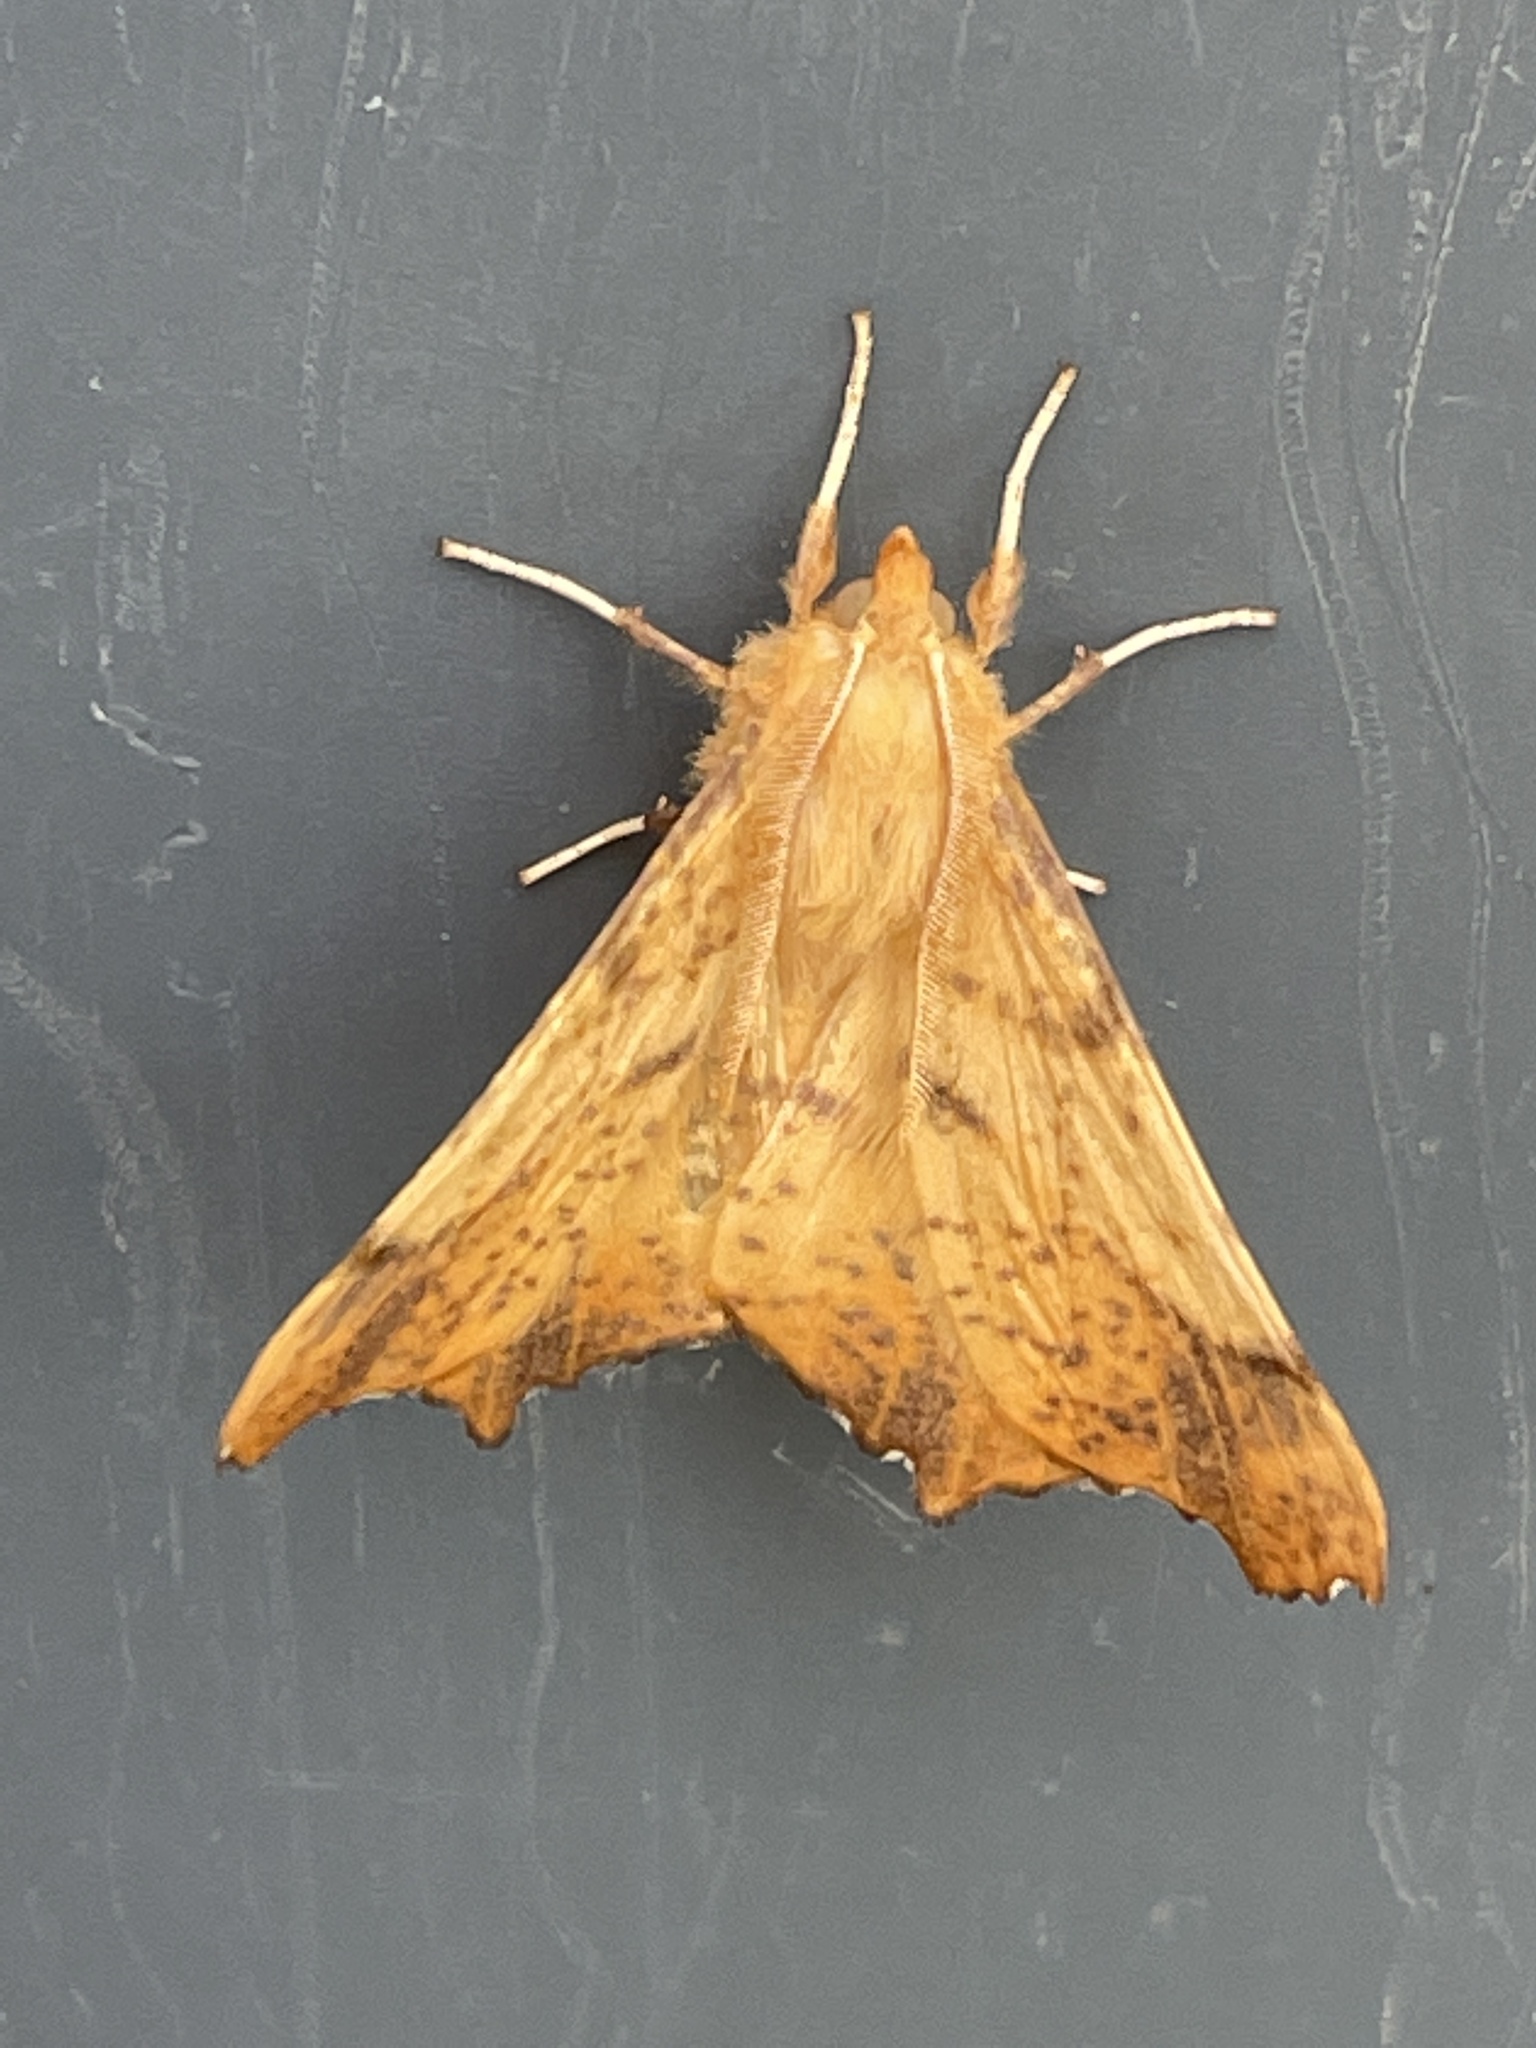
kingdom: Animalia
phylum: Arthropoda
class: Insecta
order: Lepidoptera
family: Geometridae
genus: Ennomos
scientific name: Ennomos magnaria
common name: Maple spanworm
